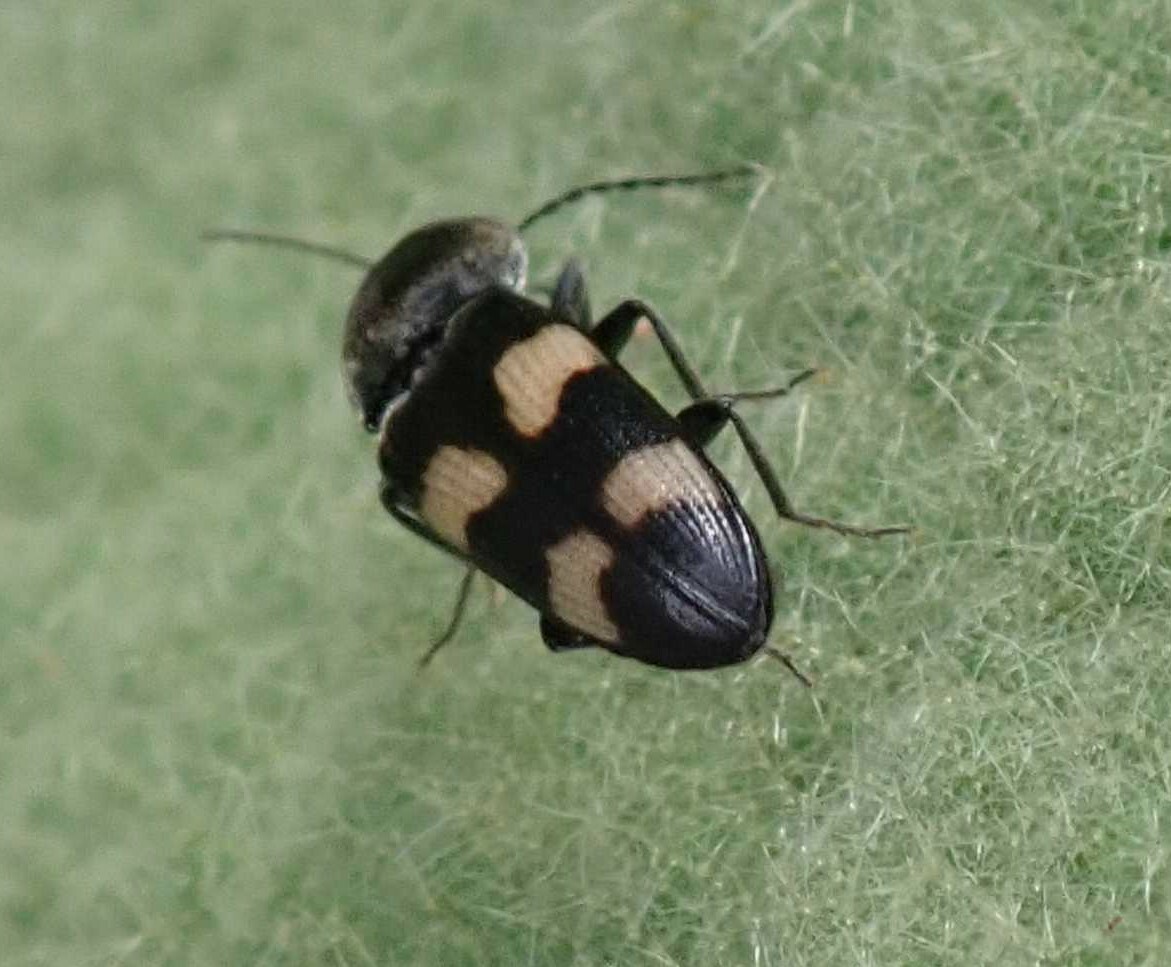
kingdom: Animalia
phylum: Arthropoda
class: Insecta
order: Coleoptera
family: Elateridae
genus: Cardiophorus
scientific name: Cardiophorus
